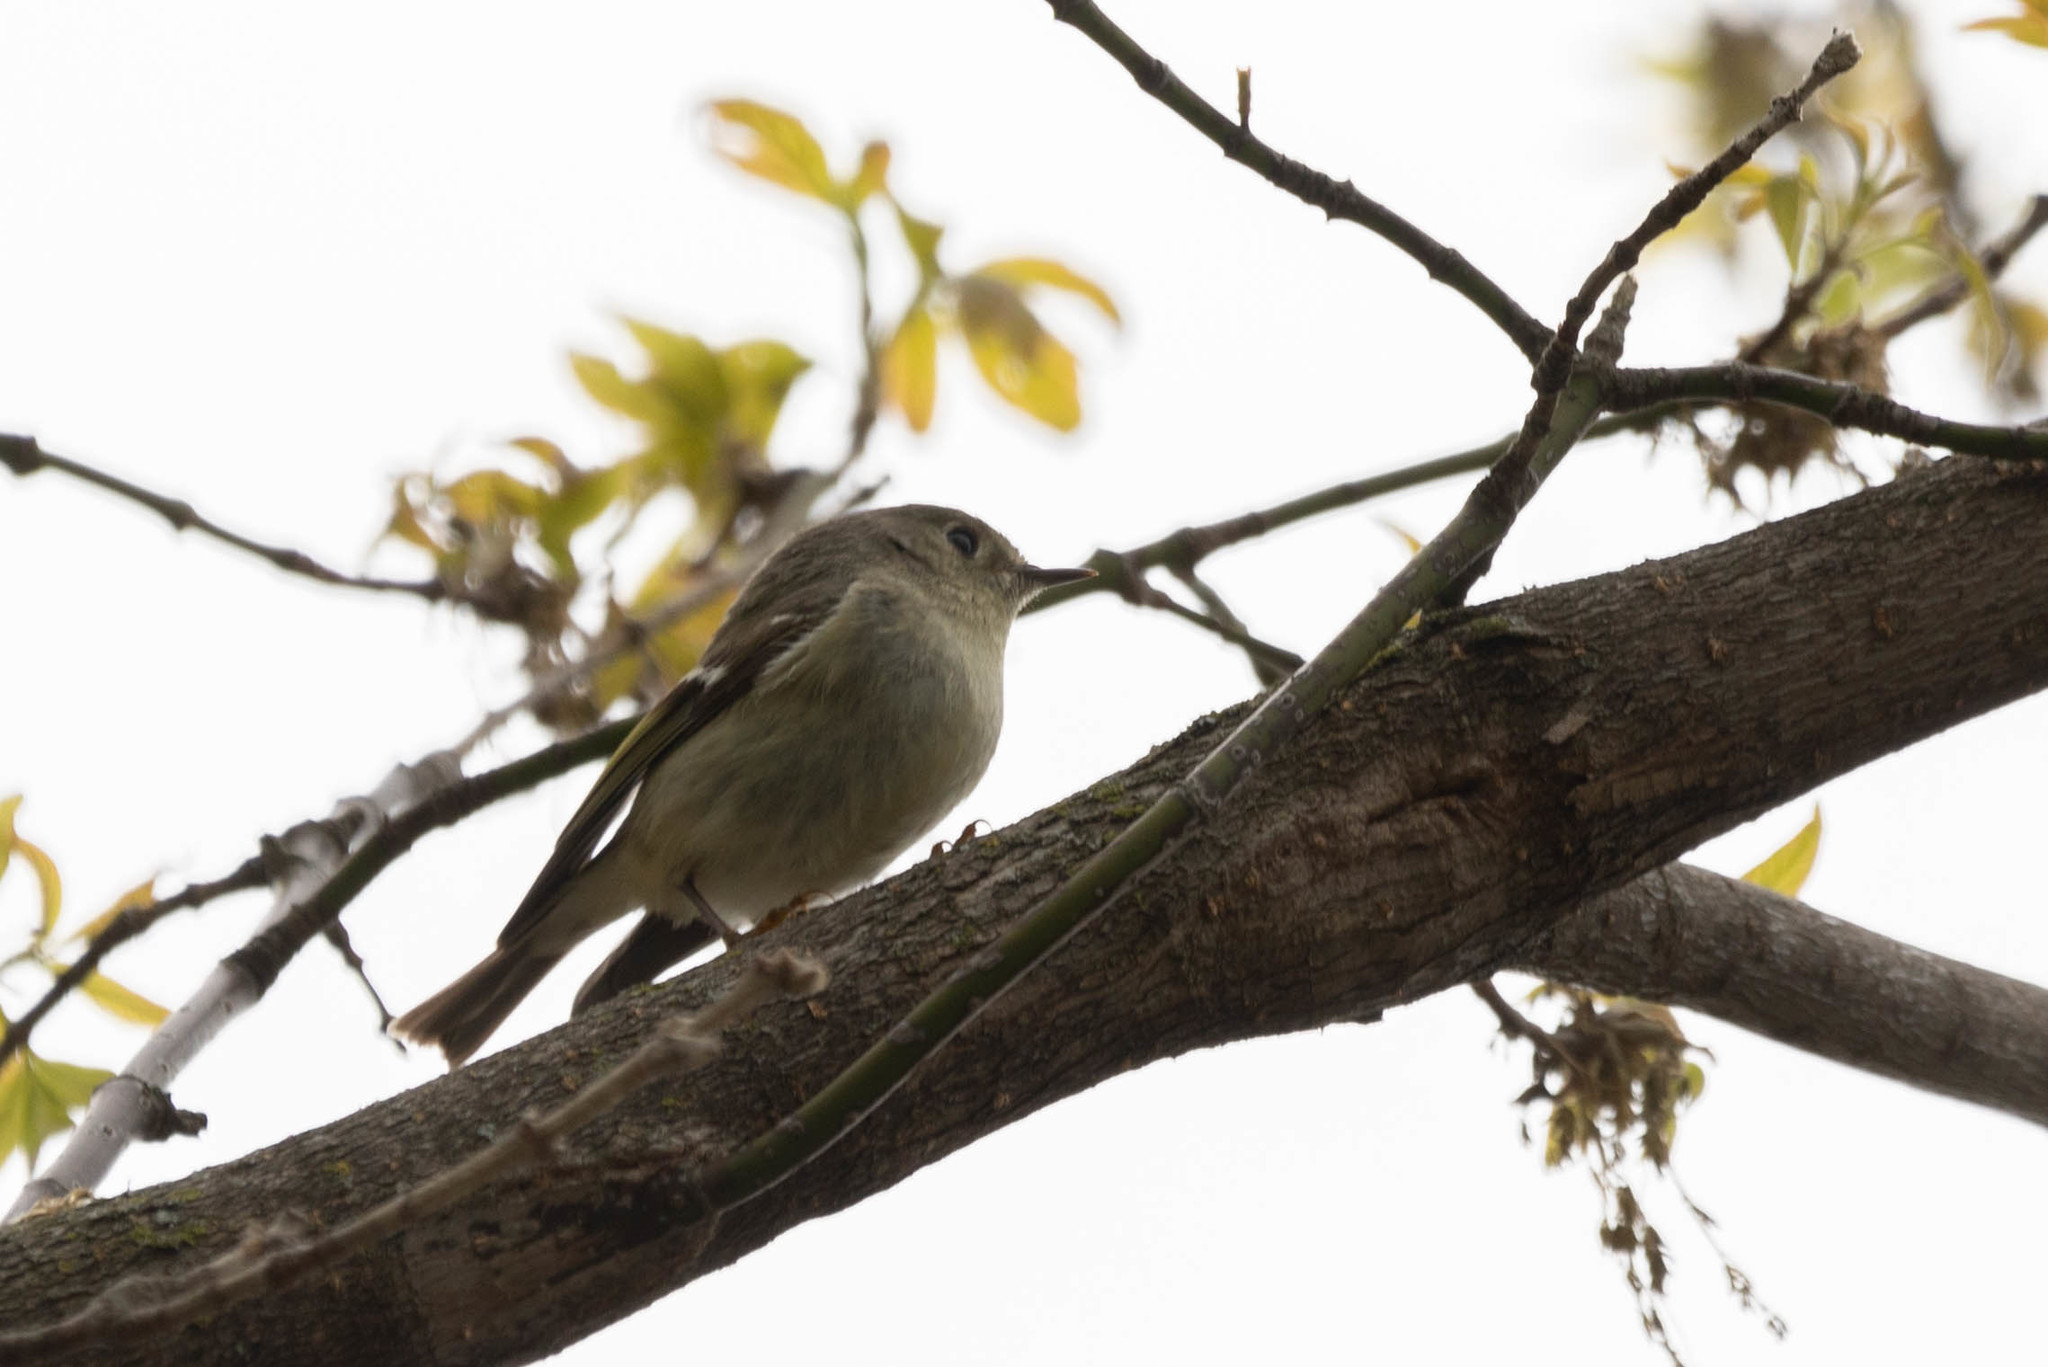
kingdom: Animalia
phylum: Chordata
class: Aves
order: Passeriformes
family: Regulidae
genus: Regulus
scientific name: Regulus calendula
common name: Ruby-crowned kinglet
